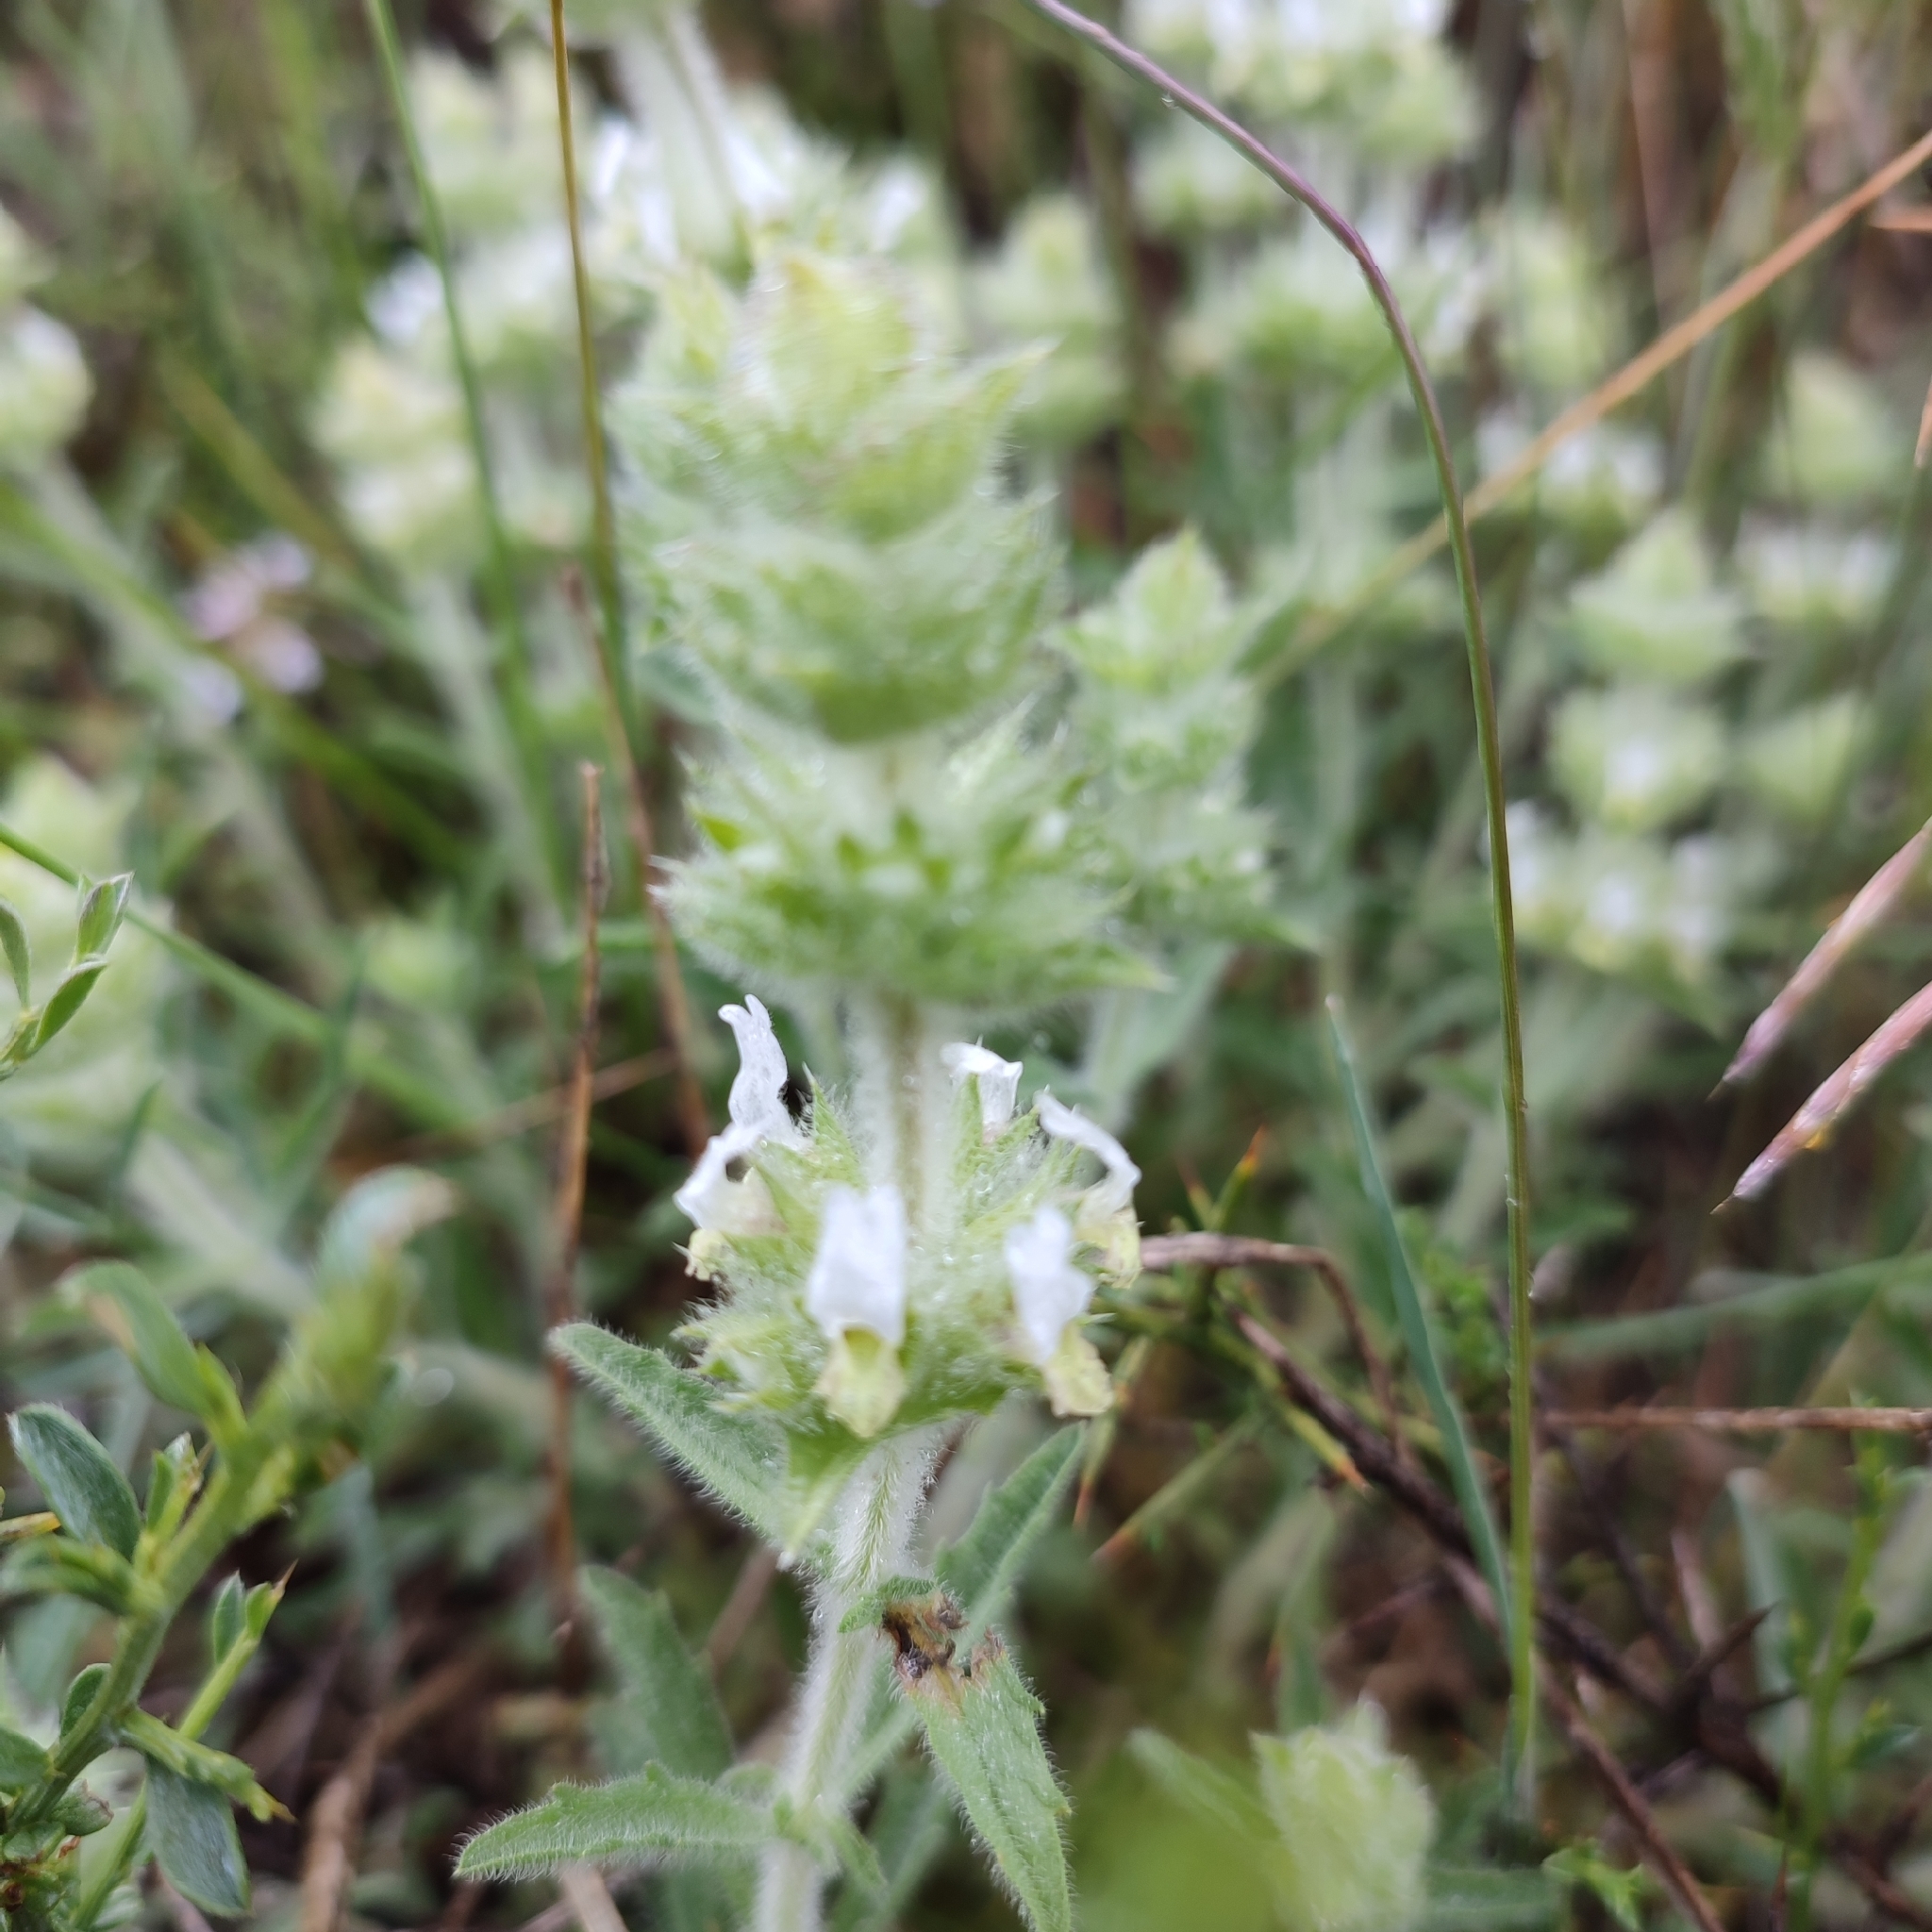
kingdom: Plantae
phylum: Tracheophyta
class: Magnoliopsida
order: Lamiales
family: Lamiaceae
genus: Sideritis
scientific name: Sideritis hirsuta
